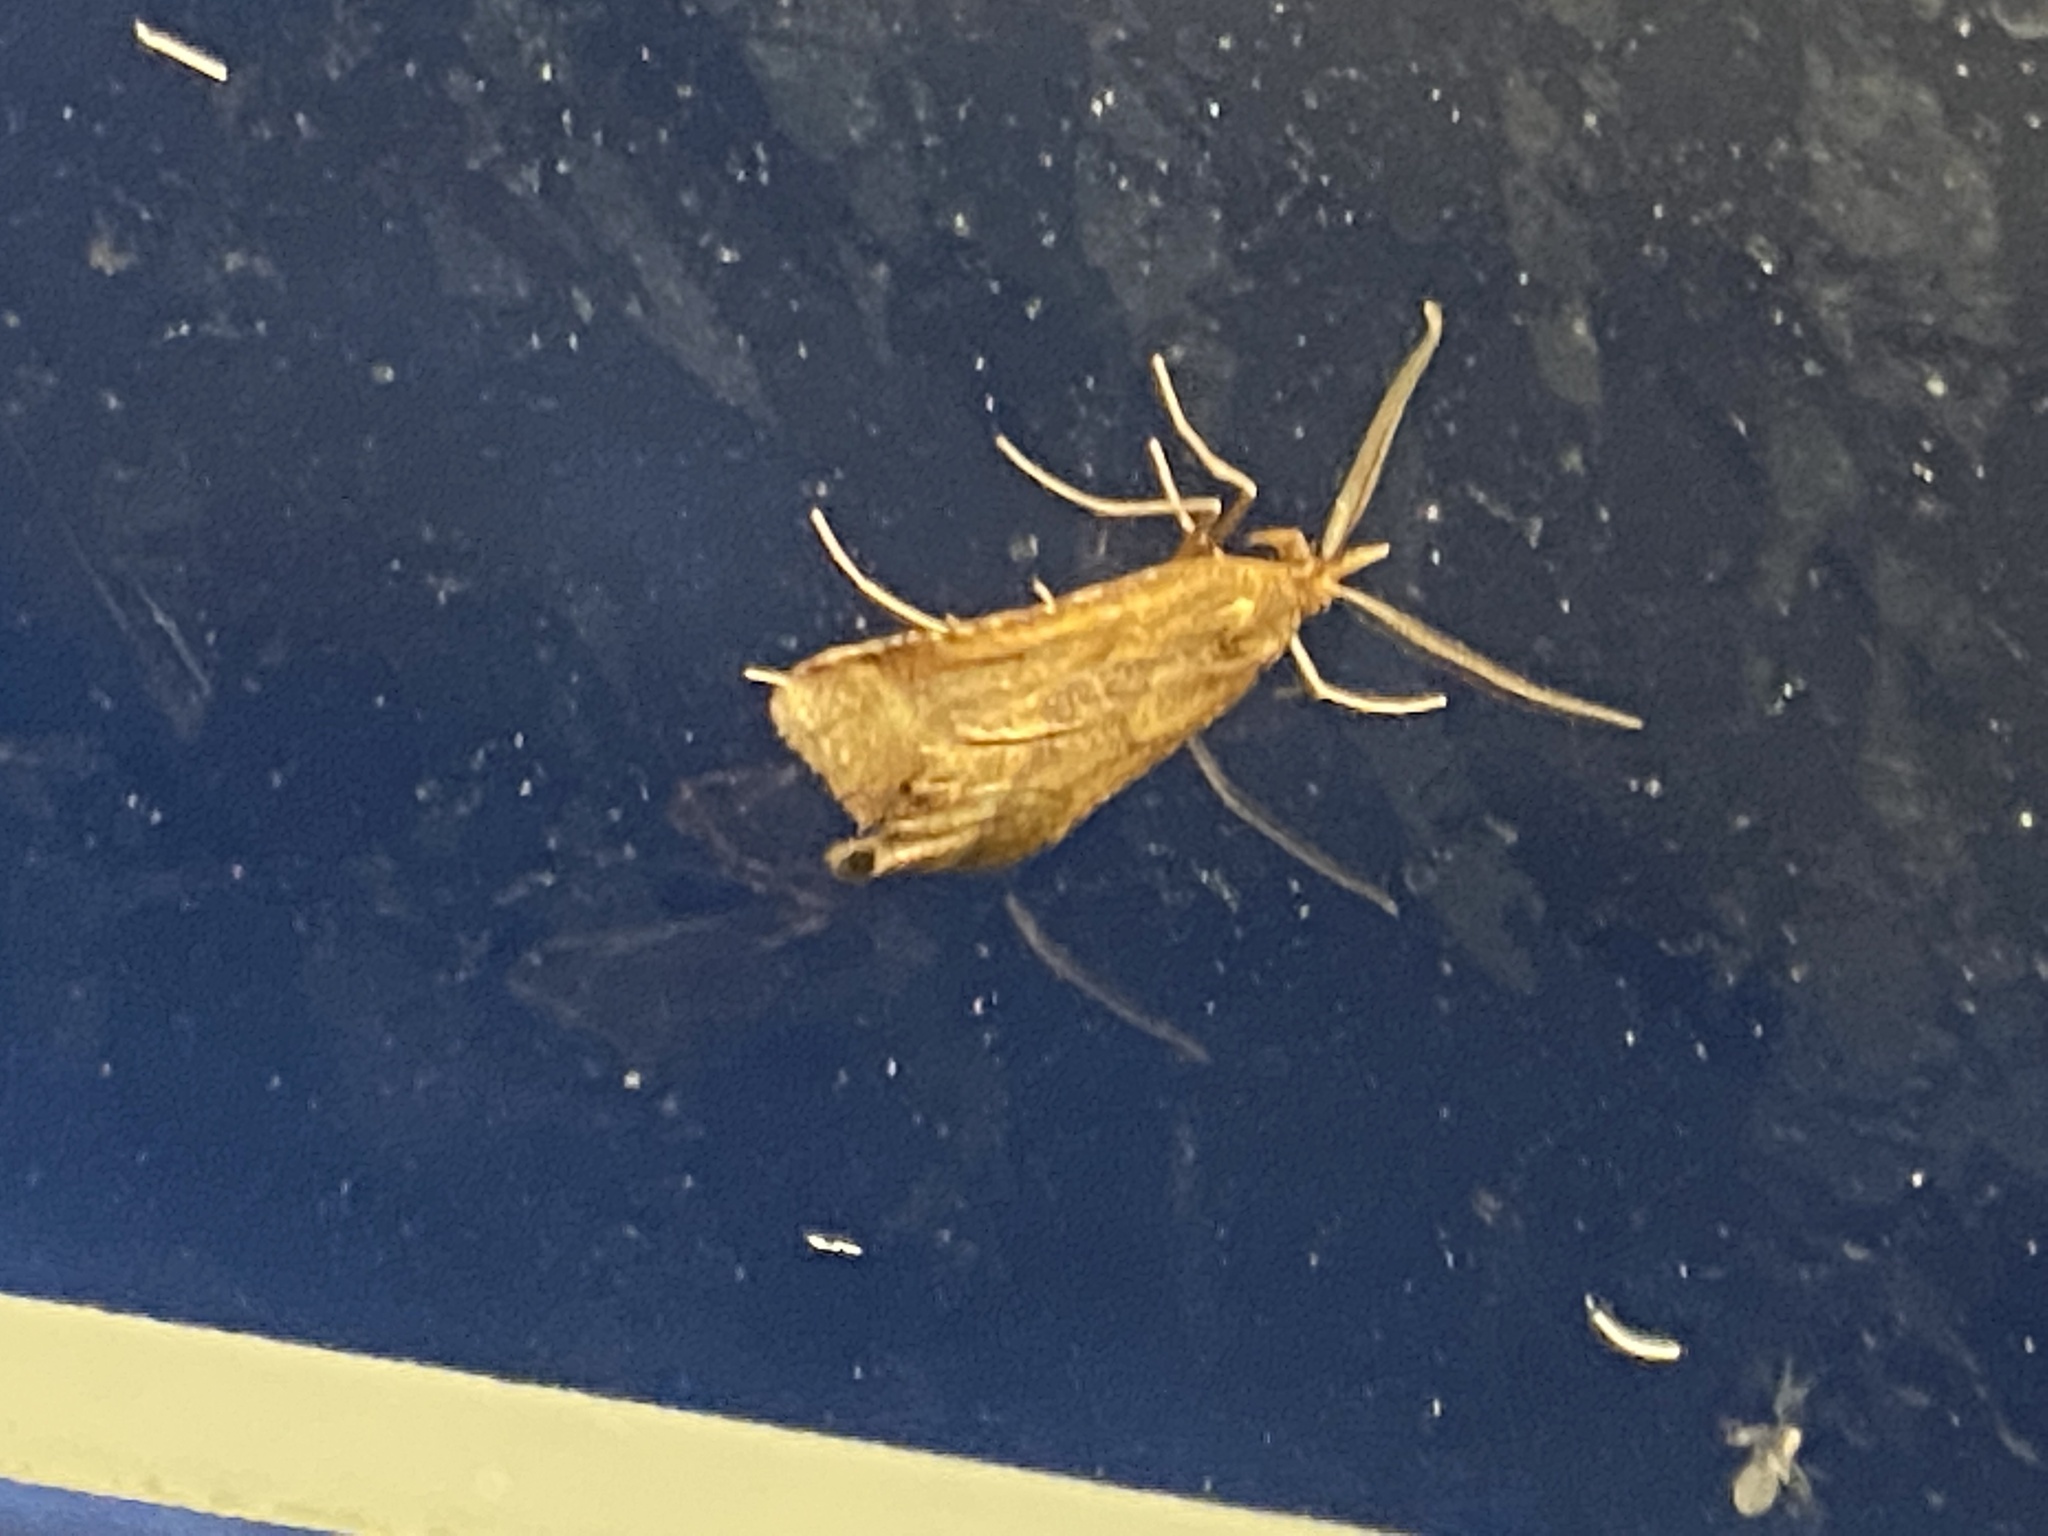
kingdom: Animalia
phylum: Arthropoda
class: Insecta
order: Lepidoptera
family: Pyralidae
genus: Synaphe
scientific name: Synaphe punctalis
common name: Long-legged tabby
